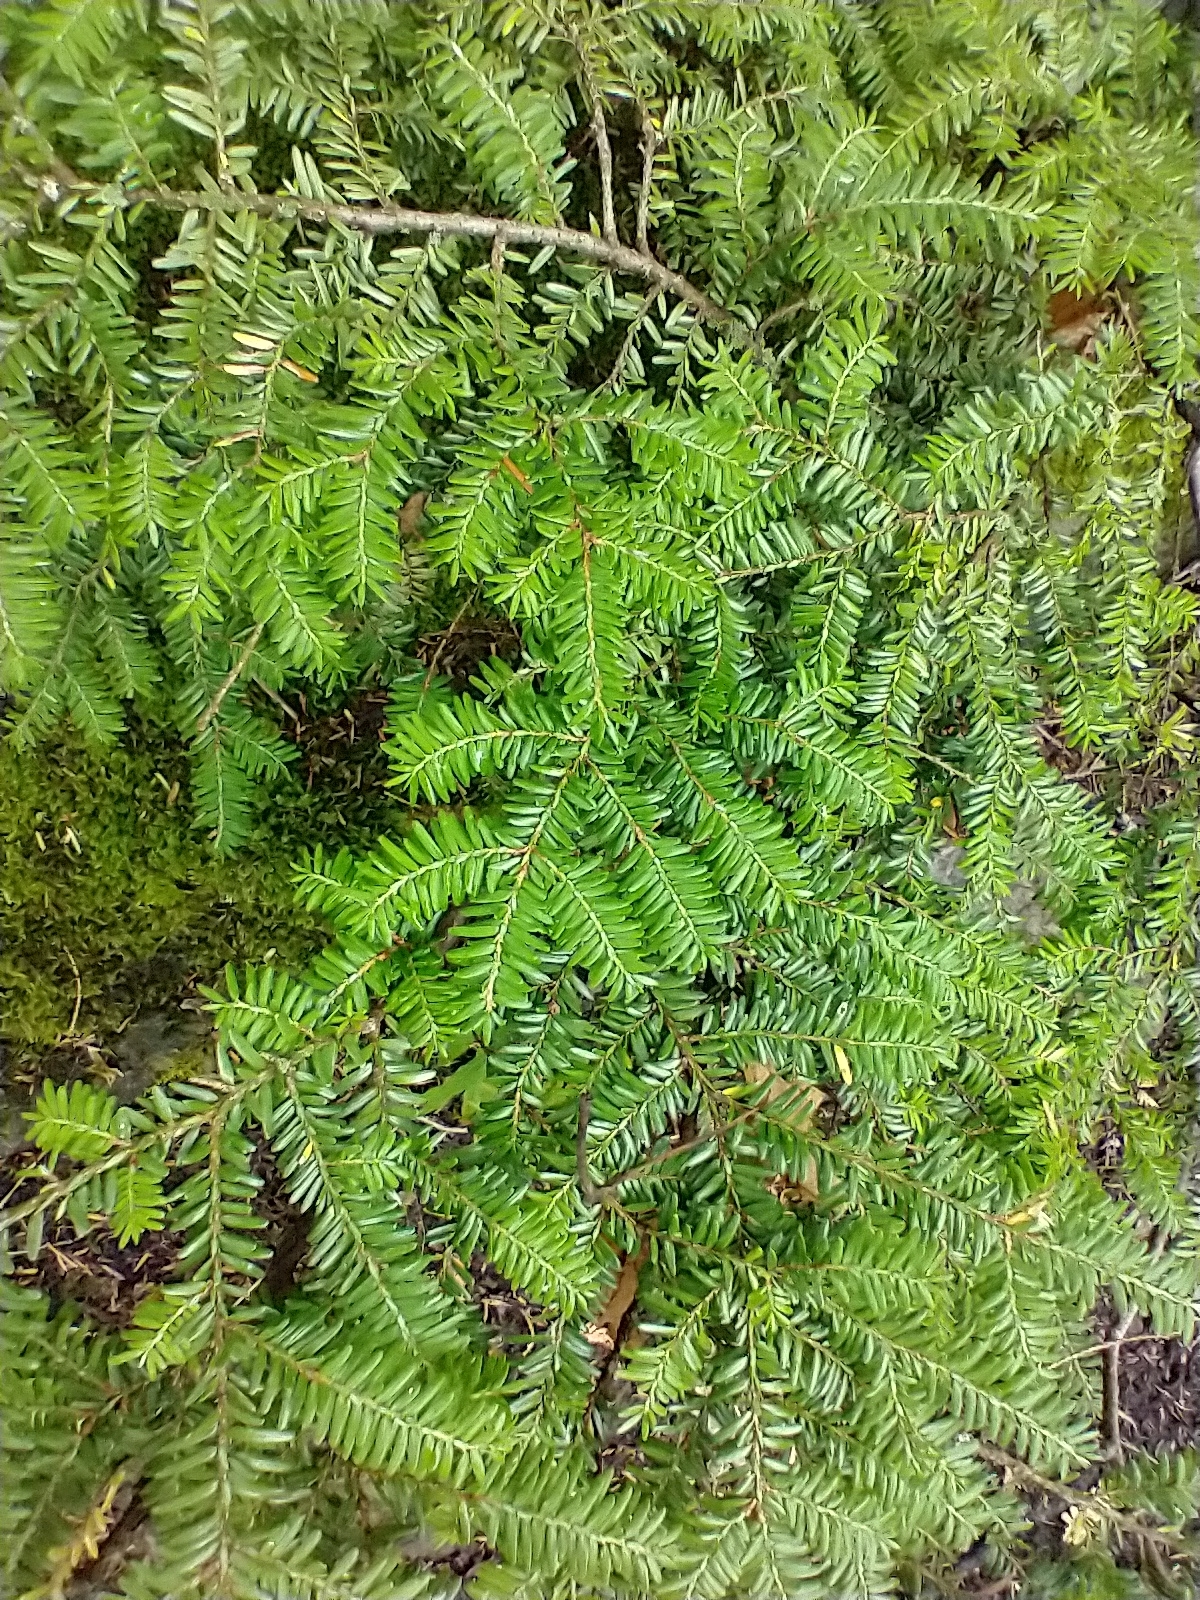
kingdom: Plantae
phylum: Tracheophyta
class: Pinopsida
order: Pinales
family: Pinaceae
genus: Tsuga
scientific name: Tsuga canadensis
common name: Eastern hemlock
